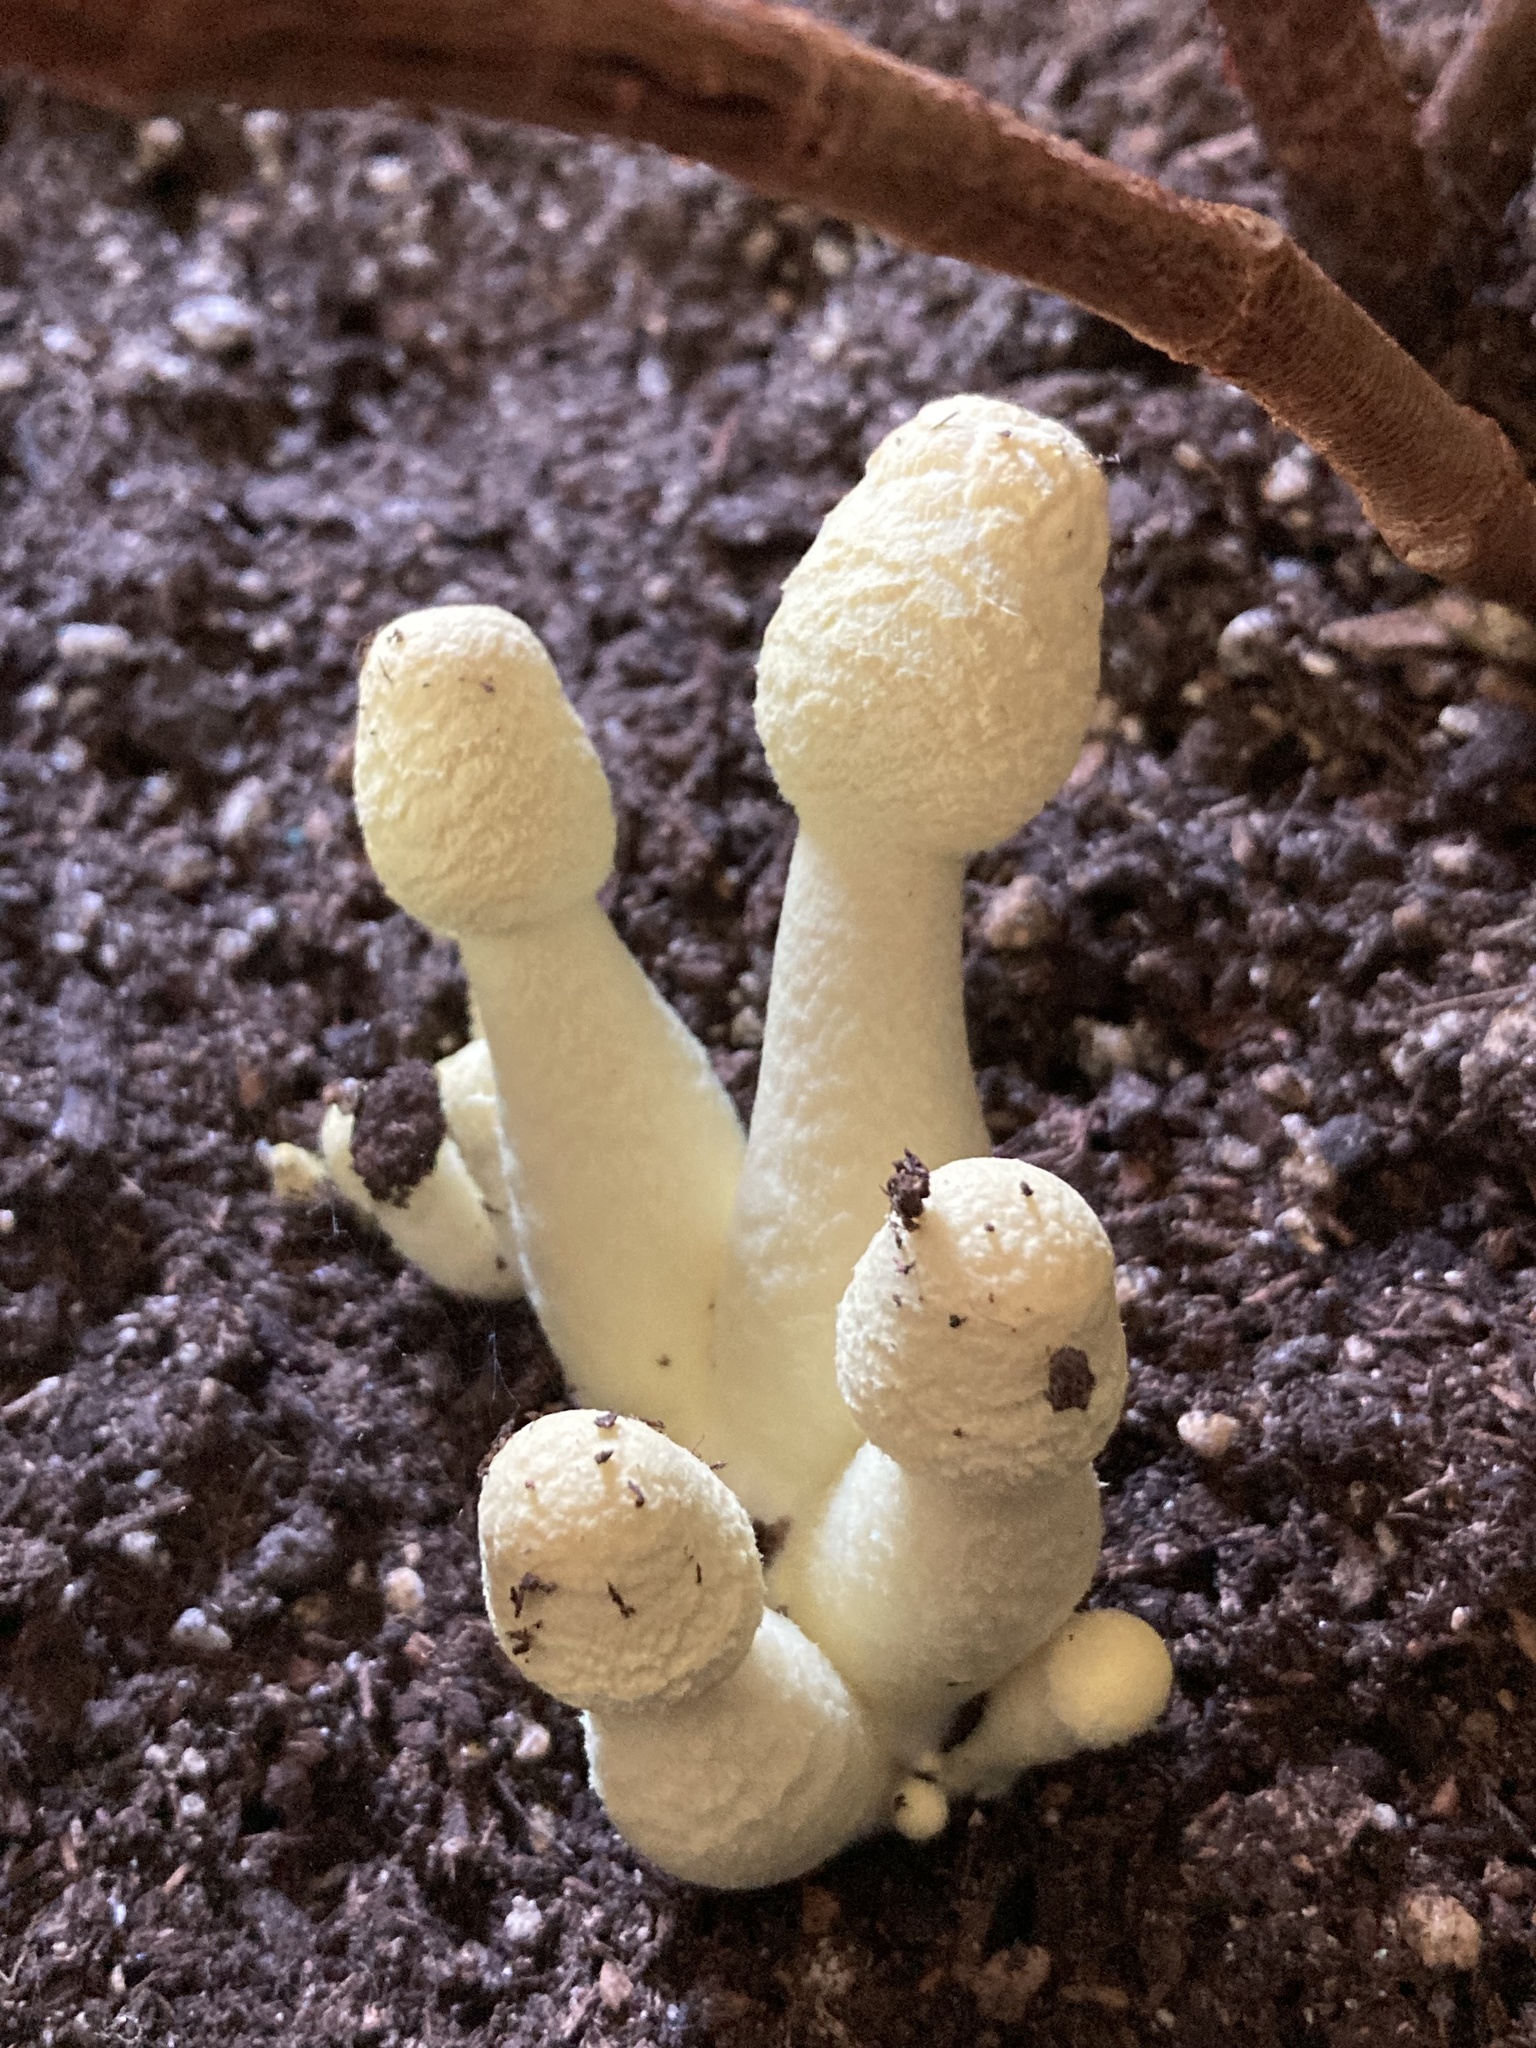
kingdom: Fungi
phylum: Basidiomycota
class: Agaricomycetes
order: Agaricales
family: Agaricaceae
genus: Leucocoprinus
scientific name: Leucocoprinus birnbaumii
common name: Plantpot dapperling
